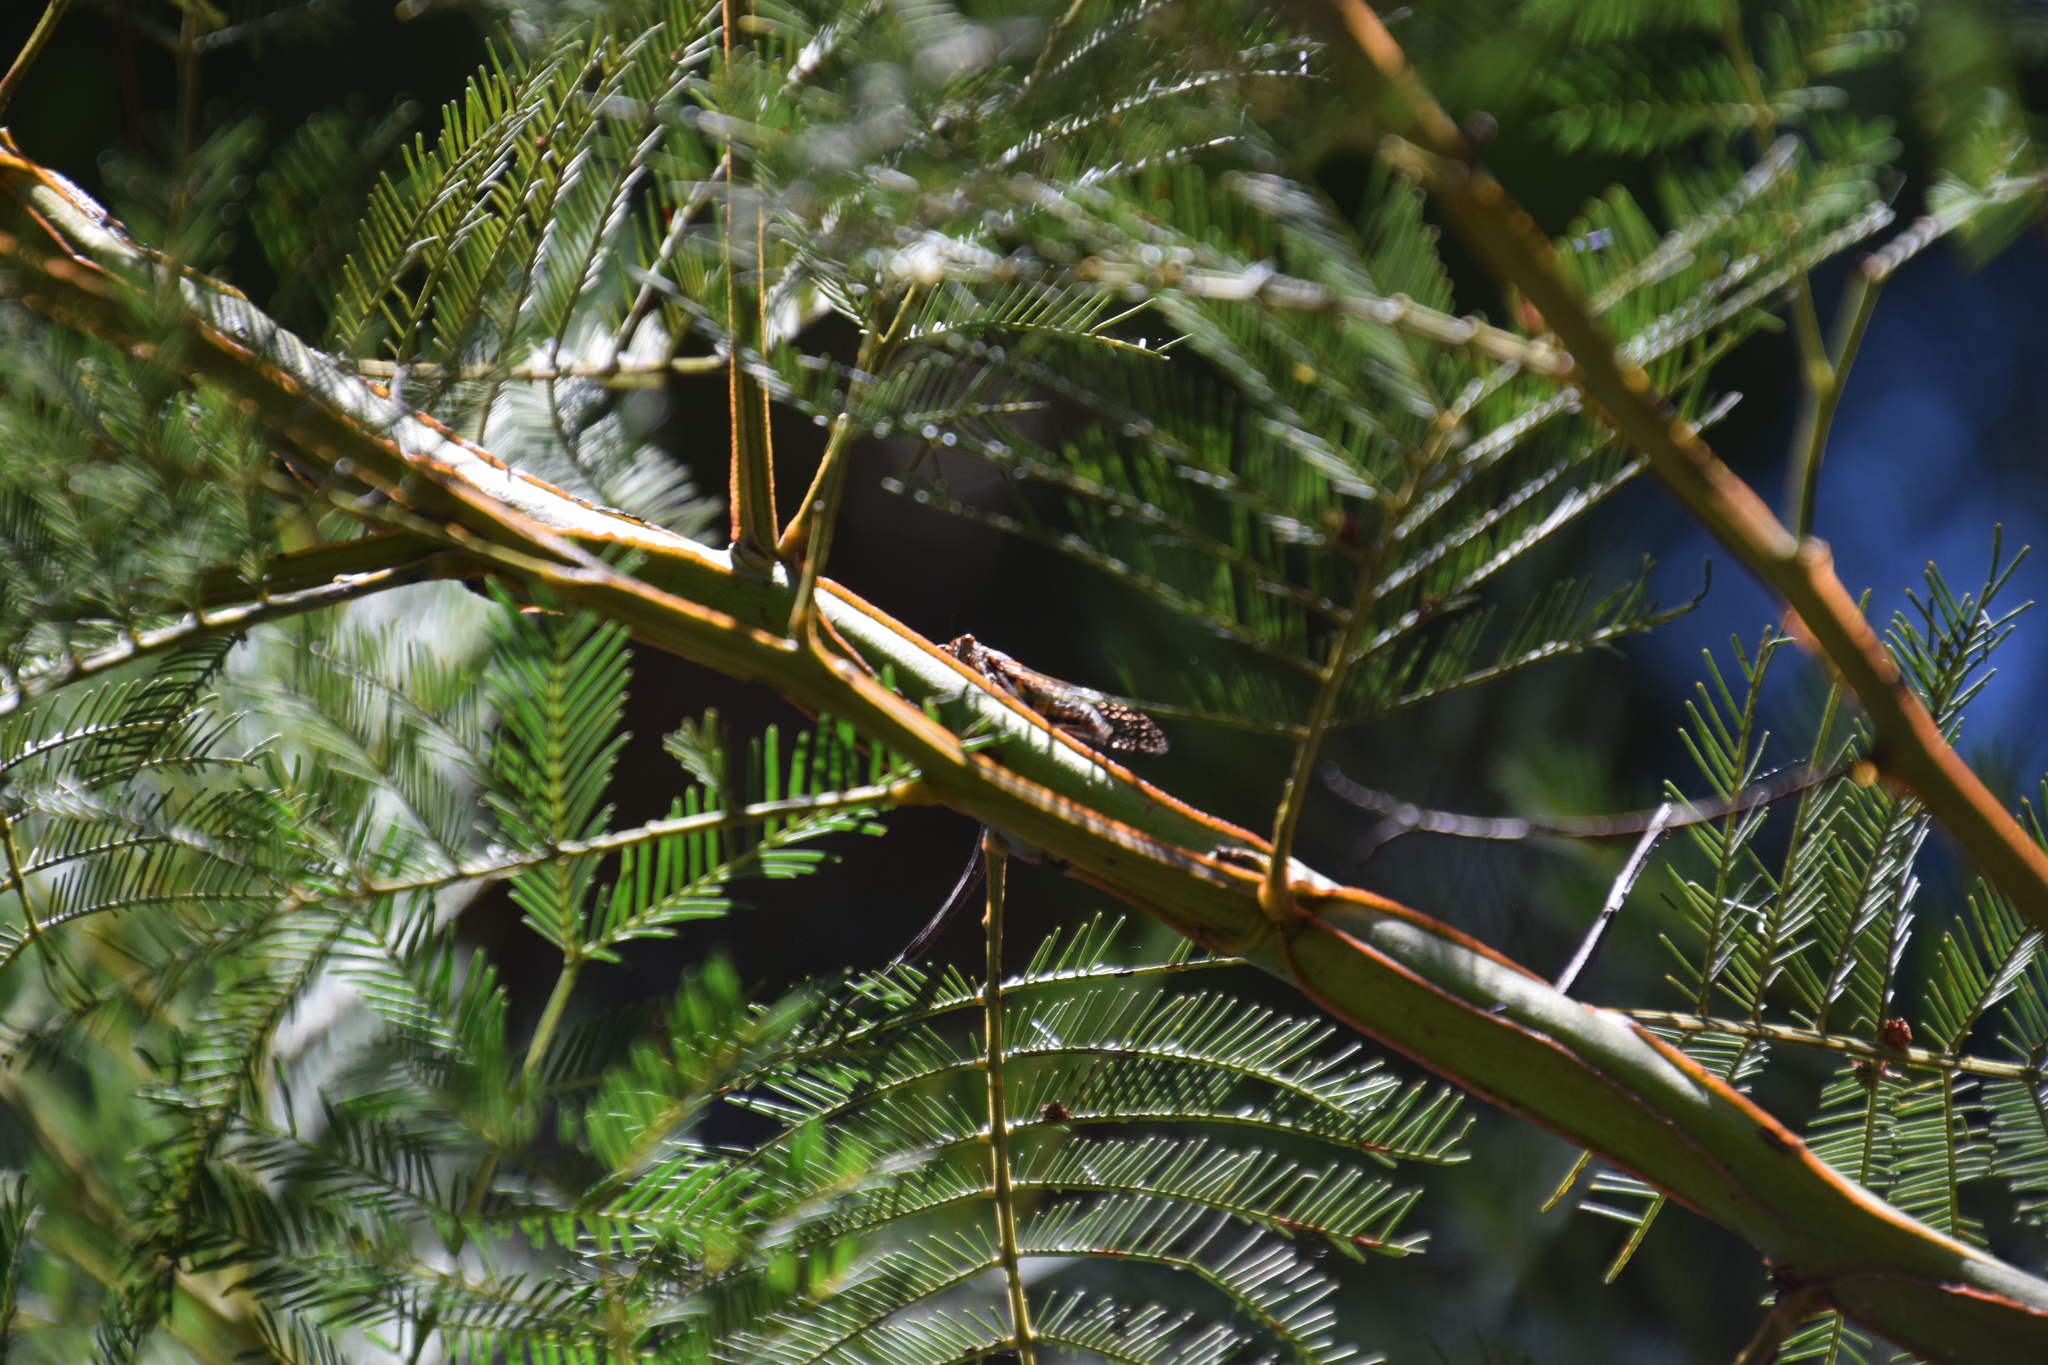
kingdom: Animalia
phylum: Arthropoda
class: Insecta
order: Hemiptera
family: Cicadidae
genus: Clinopsalta
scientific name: Clinopsalta autumna
